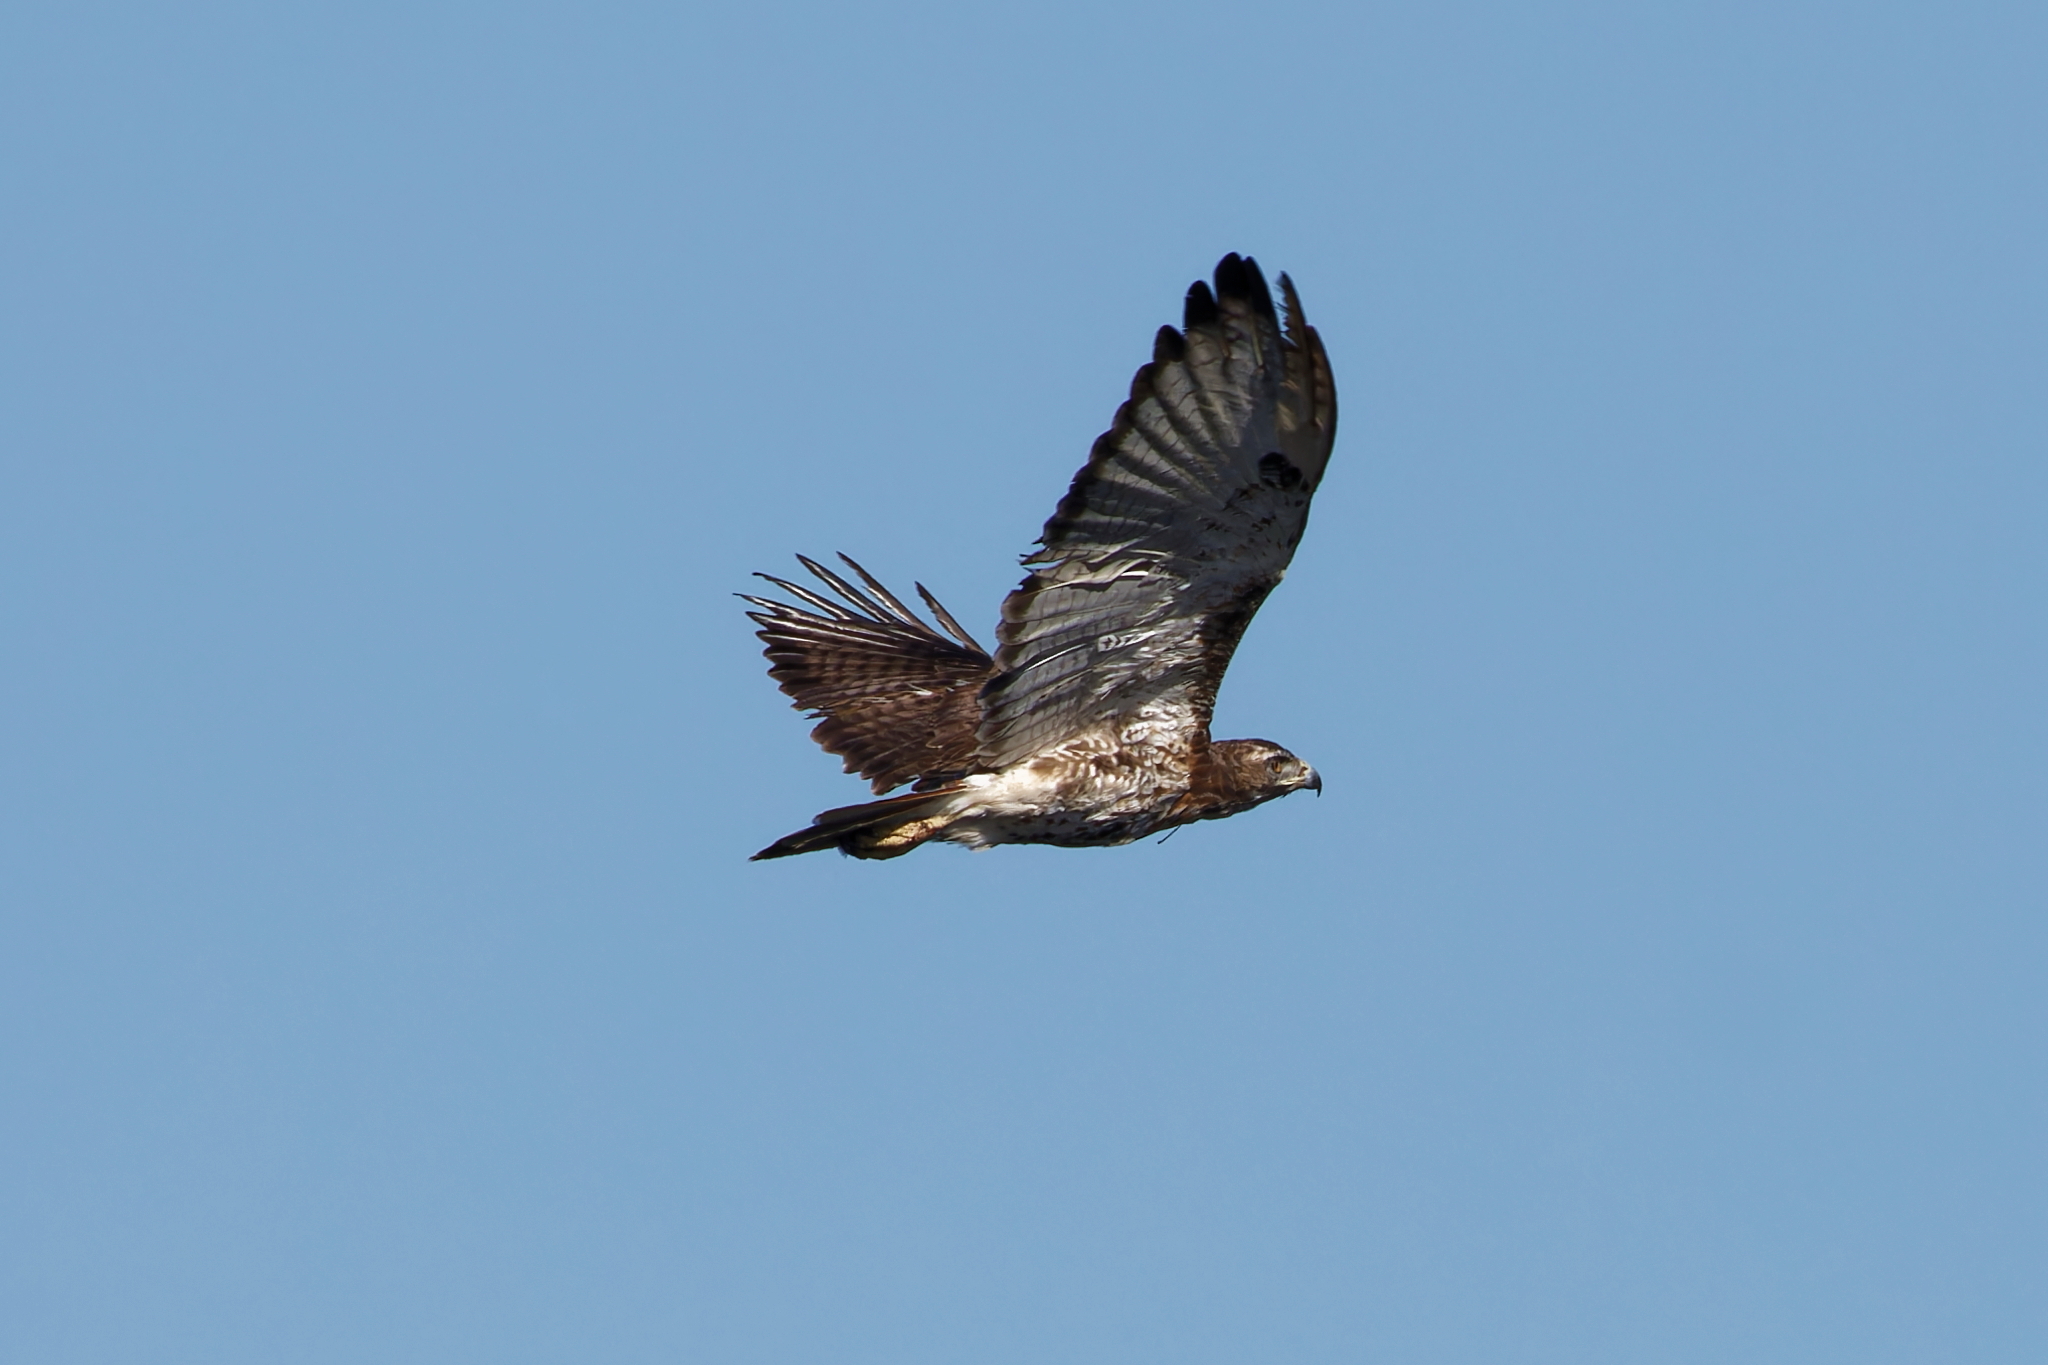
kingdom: Animalia
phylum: Chordata
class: Aves
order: Accipitriformes
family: Accipitridae
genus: Buteo
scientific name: Buteo jamaicensis
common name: Red-tailed hawk
